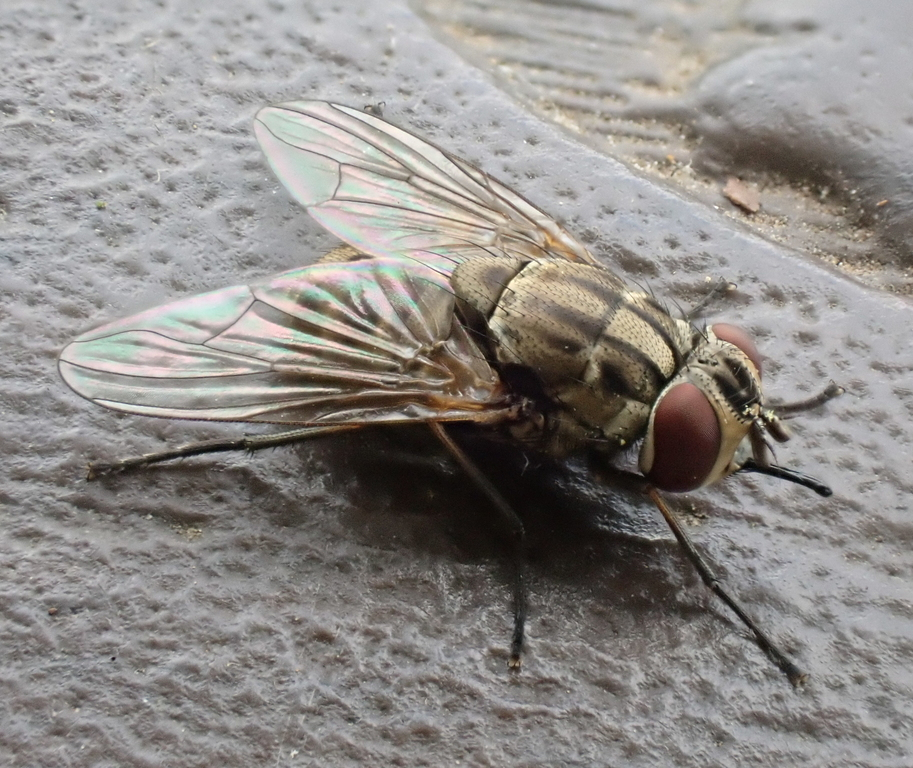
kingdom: Animalia
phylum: Arthropoda
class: Insecta
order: Diptera
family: Muscidae
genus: Stomoxys
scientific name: Stomoxys calcitrans
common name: Stable fly
